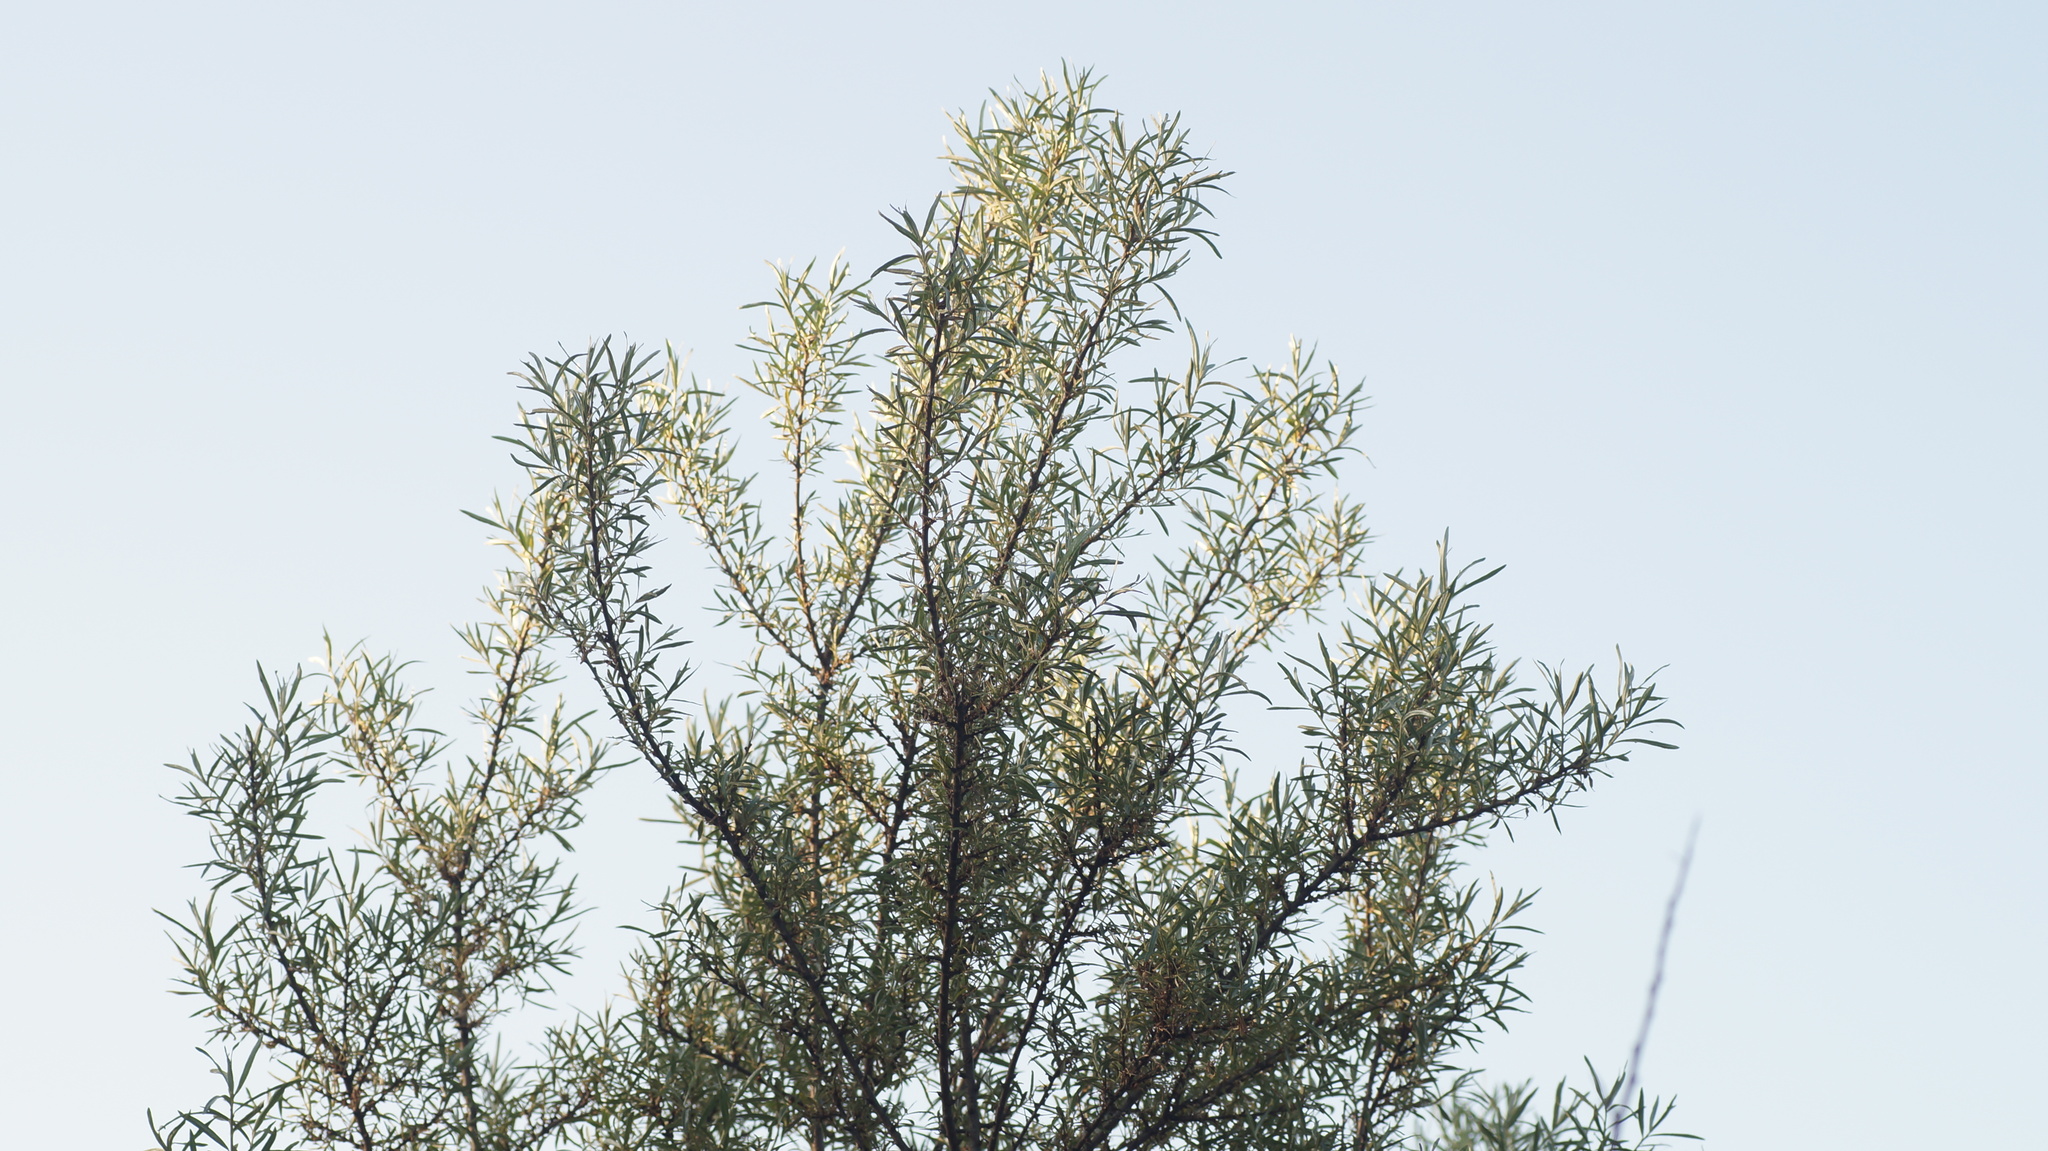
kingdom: Plantae
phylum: Tracheophyta
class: Magnoliopsida
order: Rosales
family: Elaeagnaceae
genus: Hippophae
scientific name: Hippophae rhamnoides
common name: Sea-buckthorn
